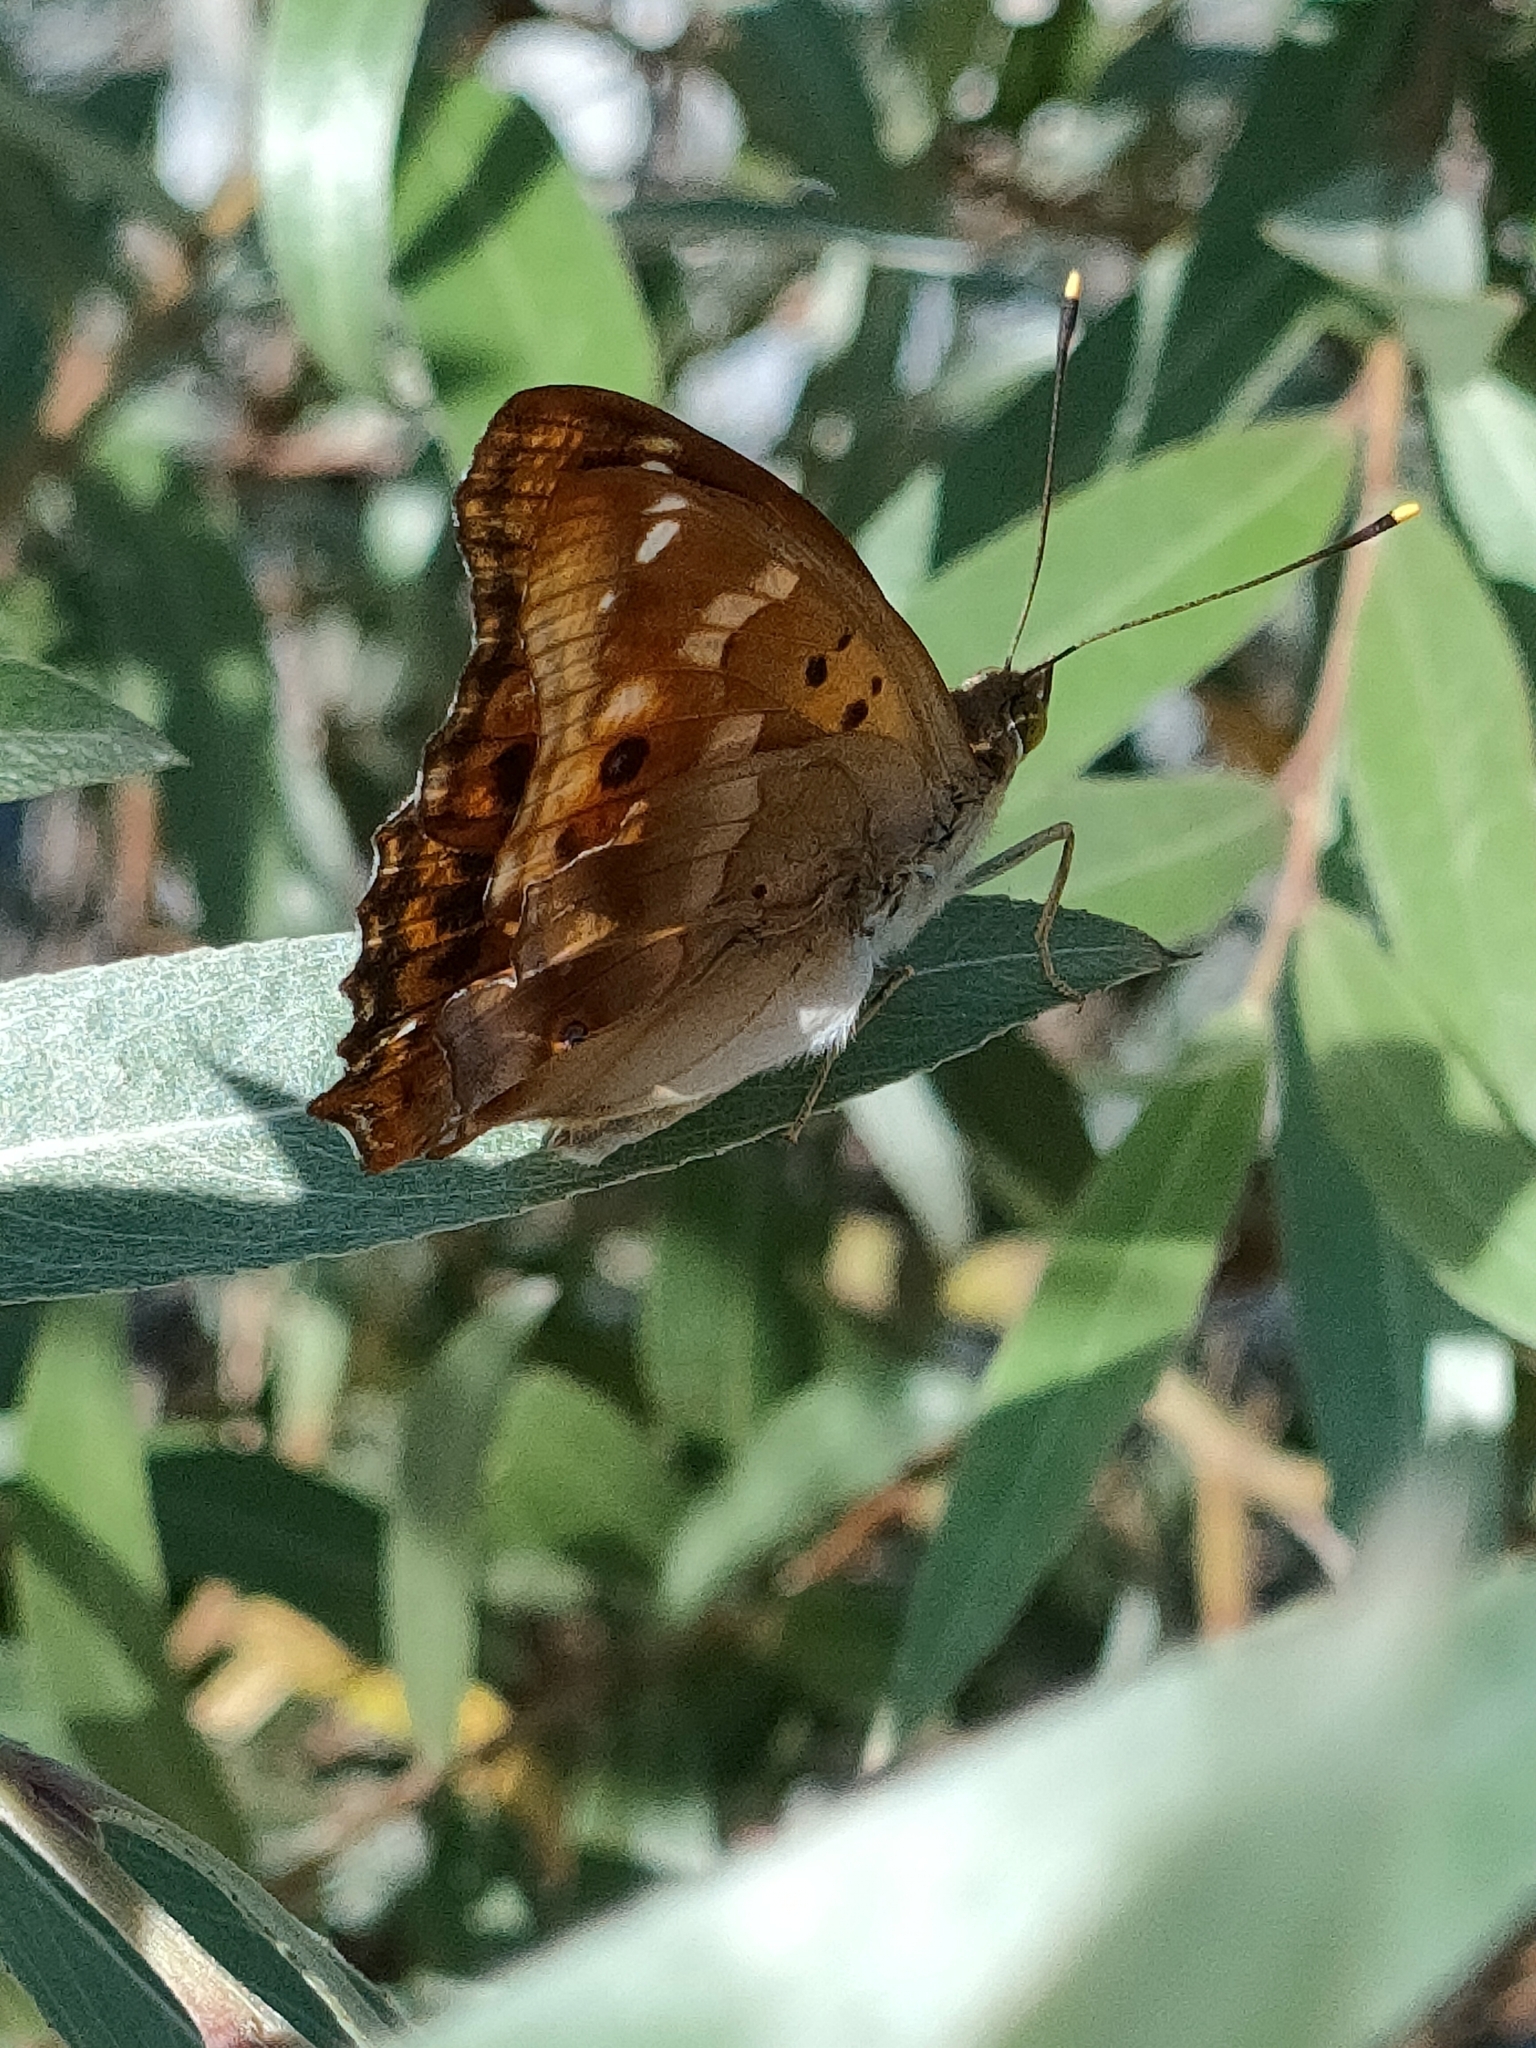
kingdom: Animalia
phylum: Arthropoda
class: Insecta
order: Lepidoptera
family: Nymphalidae
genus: Apatura
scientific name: Apatura ilia
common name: Lesser purple emperor
